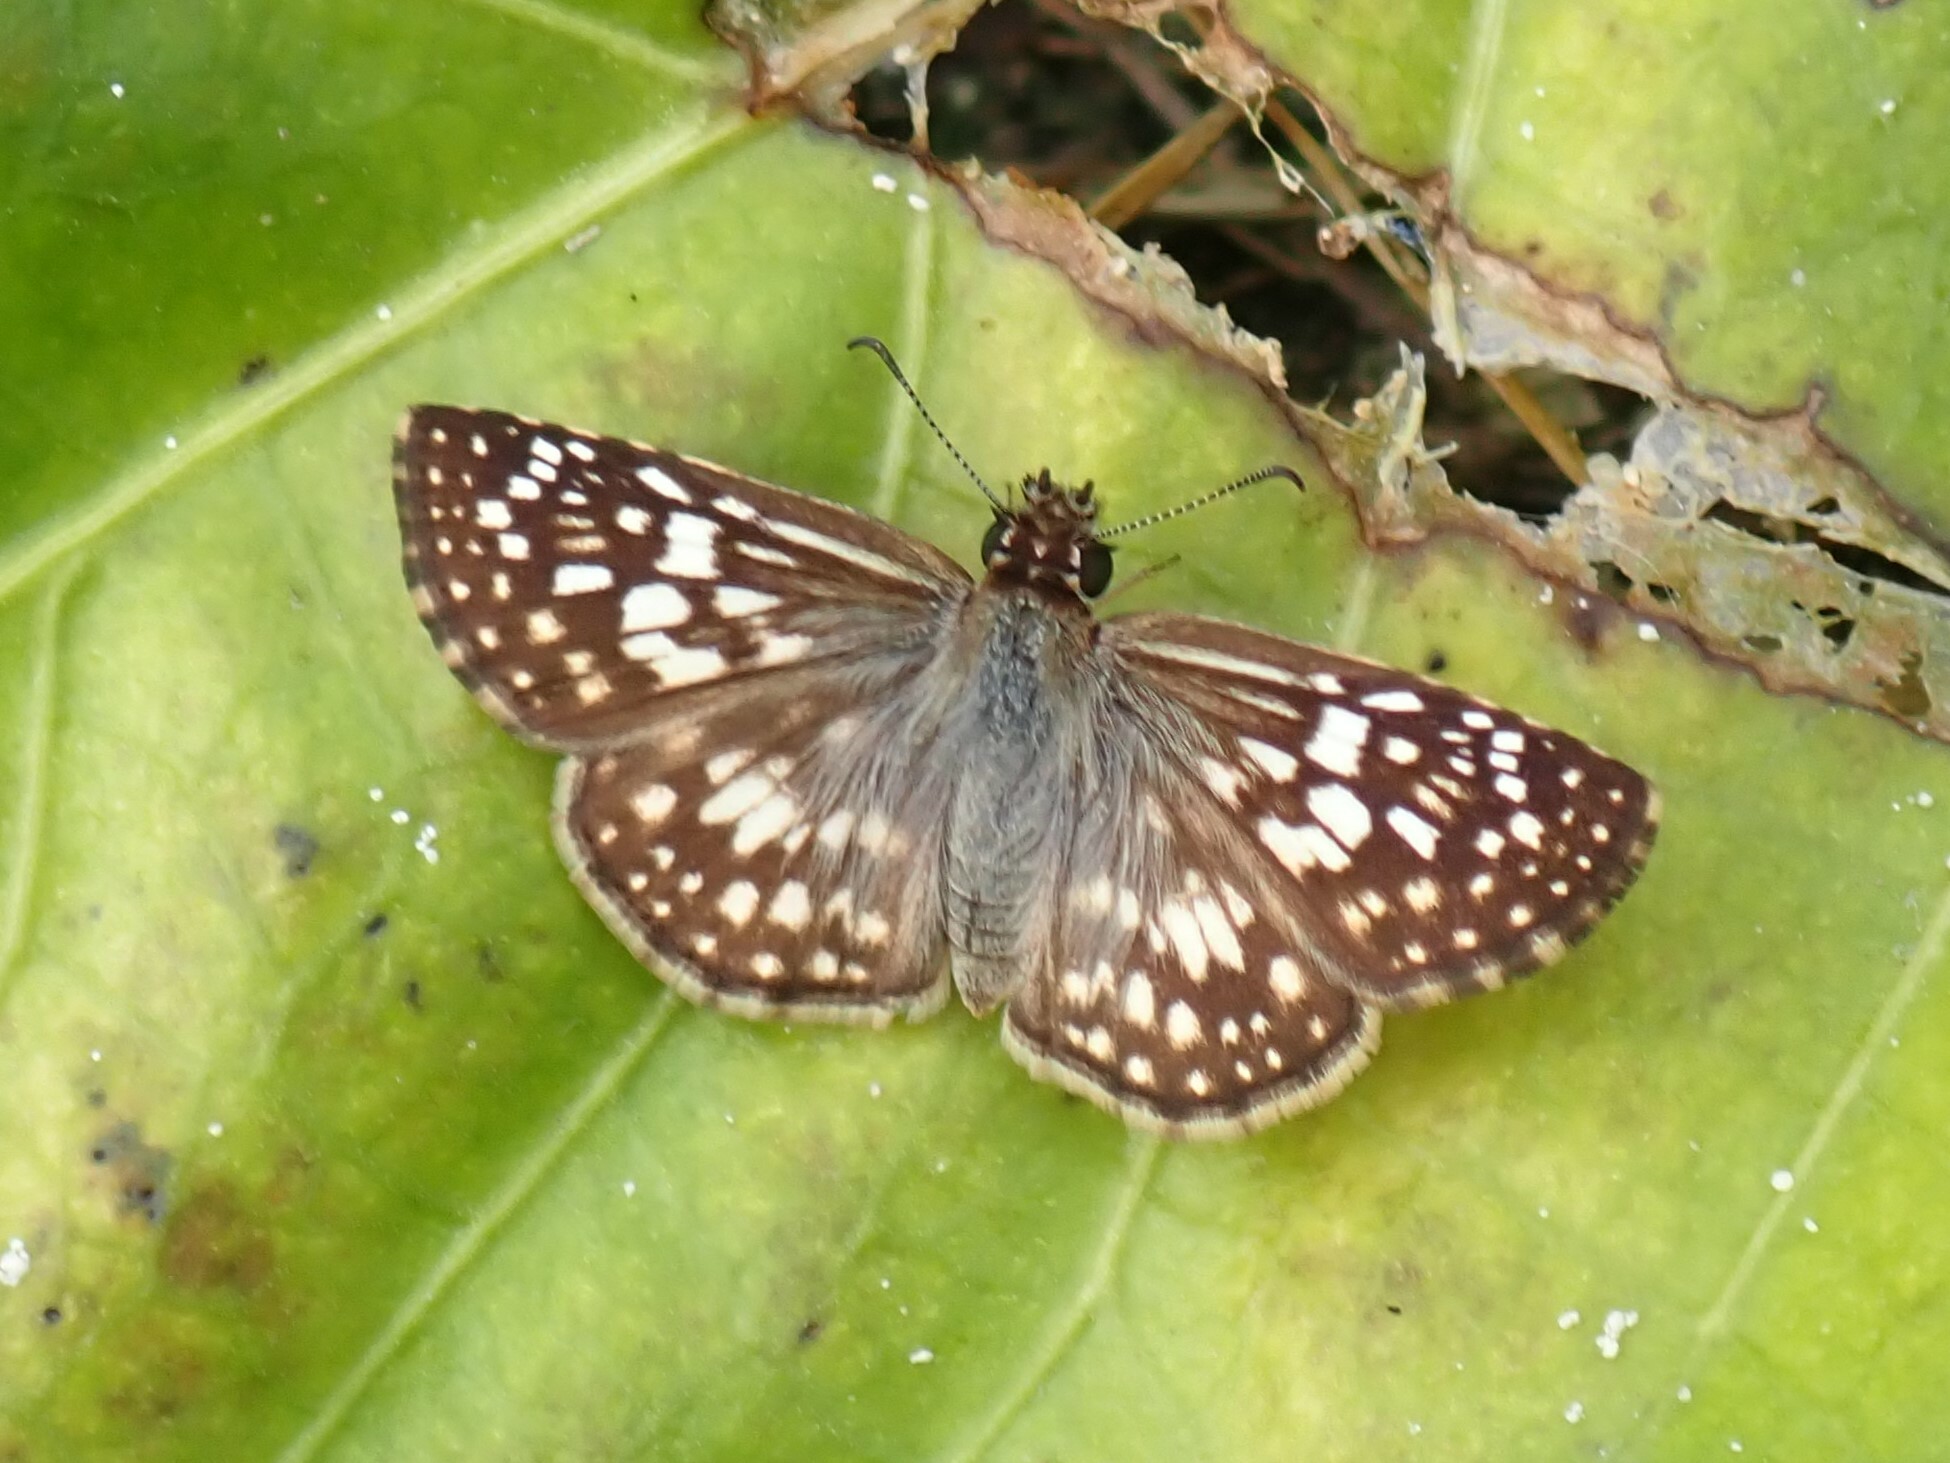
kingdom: Animalia
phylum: Arthropoda
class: Insecta
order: Lepidoptera
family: Hesperiidae
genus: Pyrgus
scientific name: Pyrgus oileus
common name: Tropical checkered-skipper
